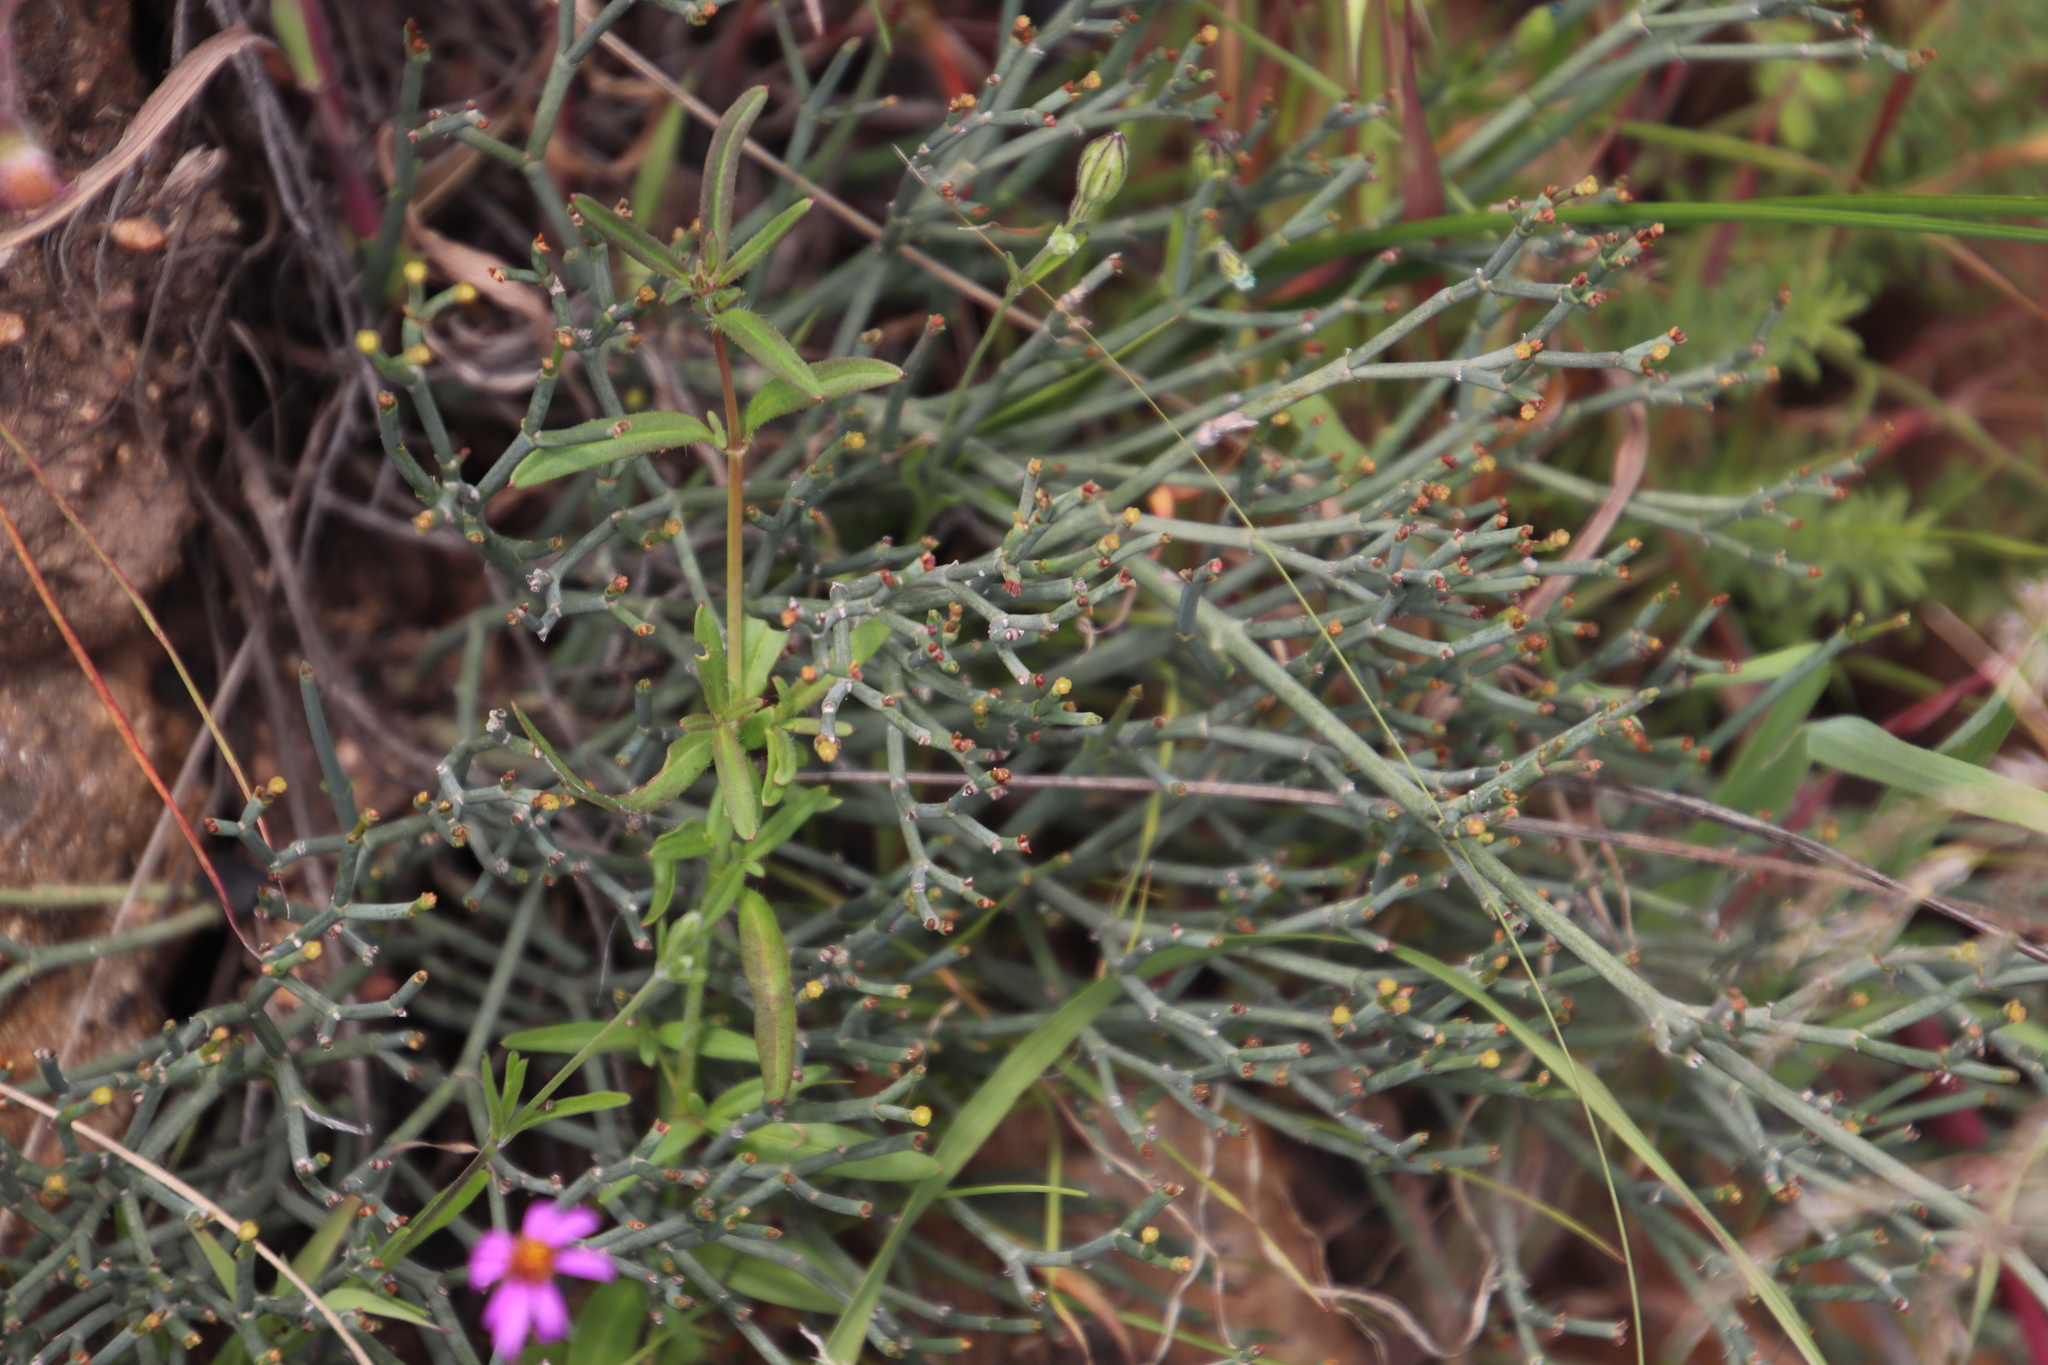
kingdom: Plantae
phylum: Tracheophyta
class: Magnoliopsida
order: Malpighiales
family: Euphorbiaceae
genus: Euphorbia
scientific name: Euphorbia tenax
